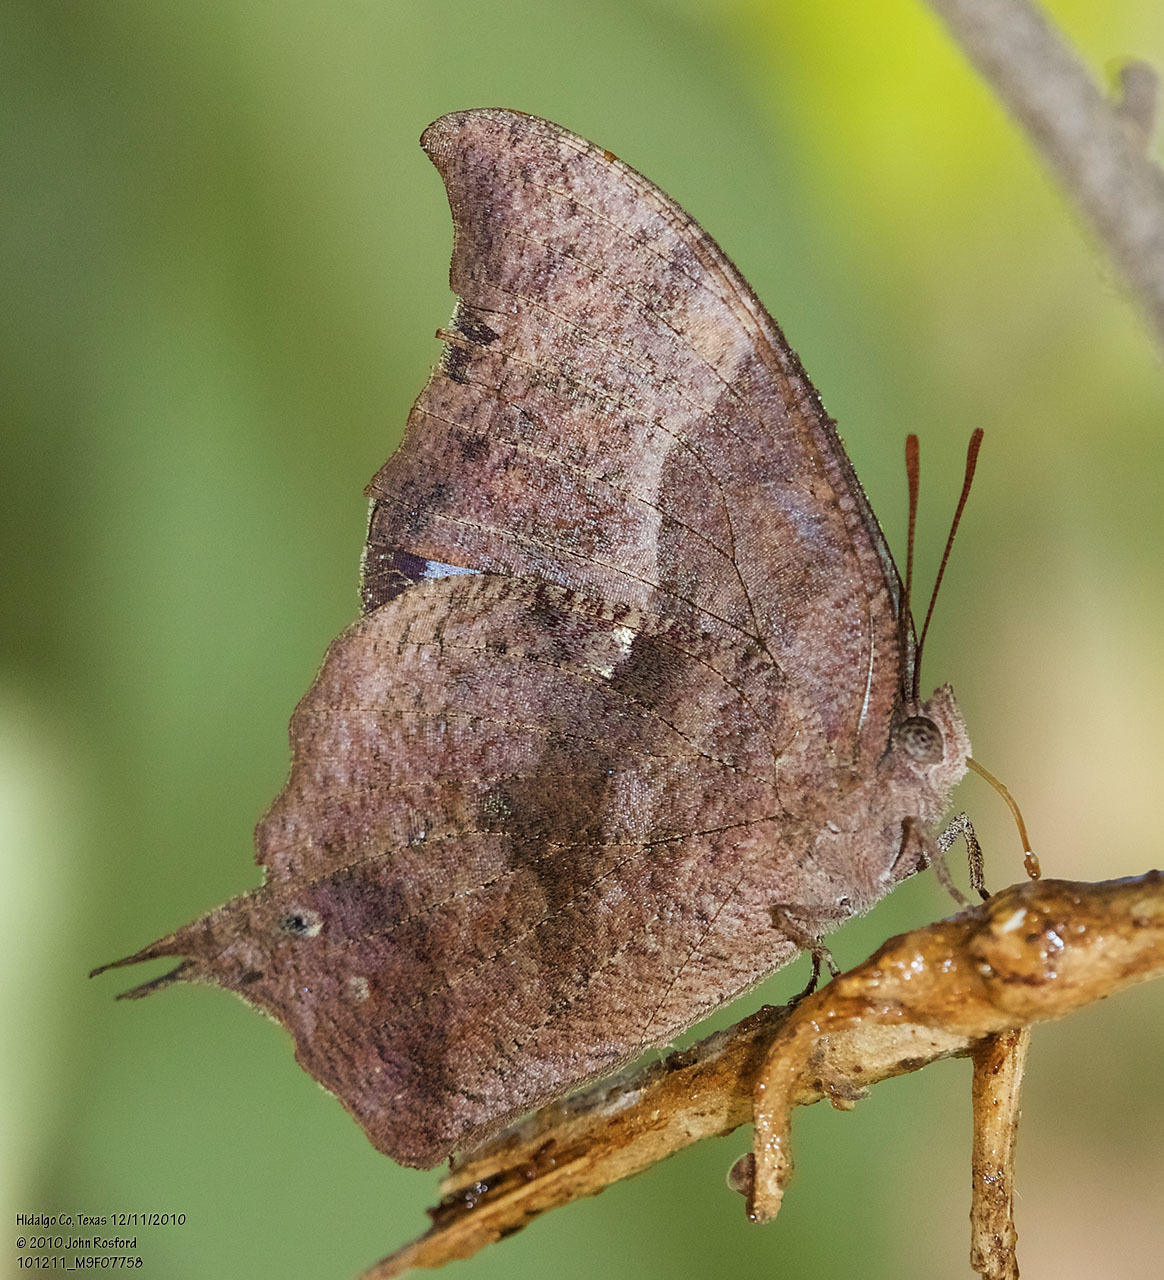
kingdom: Animalia
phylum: Arthropoda
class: Insecta
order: Lepidoptera
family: Nymphalidae
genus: Anaea
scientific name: Anaea pithyusa
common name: Pale-spotted leafwing
